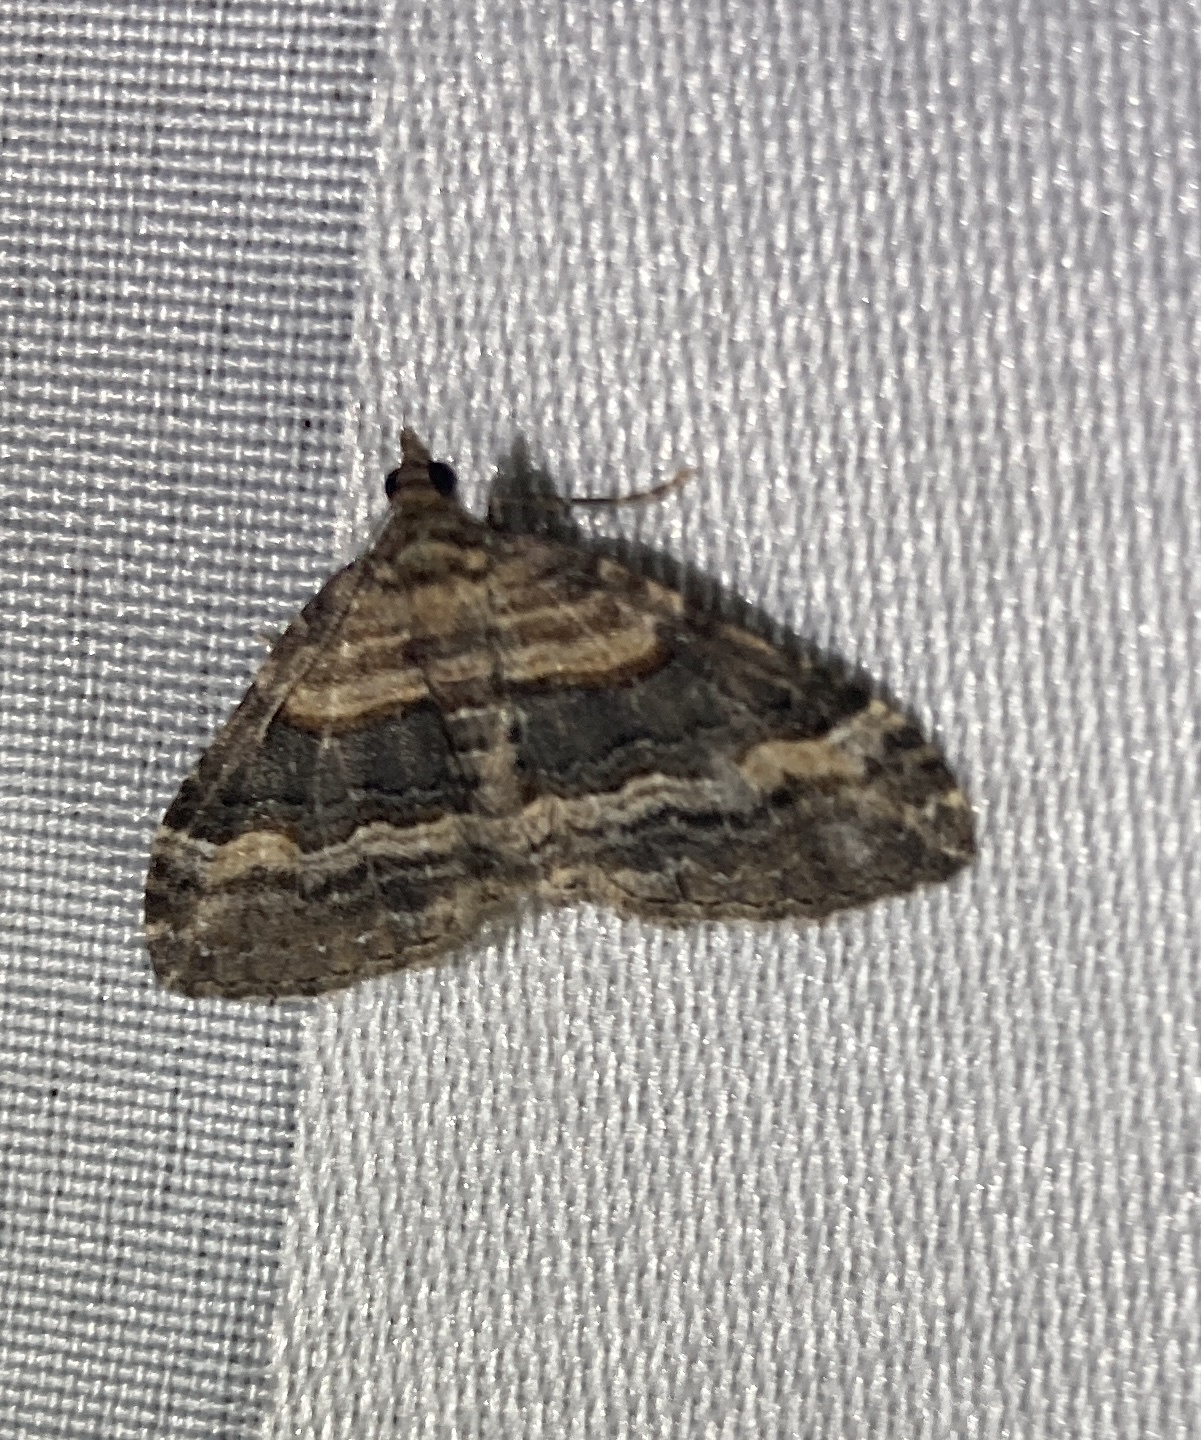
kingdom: Animalia
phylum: Arthropoda
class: Insecta
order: Lepidoptera
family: Geometridae
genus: Epyaxa
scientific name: Epyaxa lucidata
